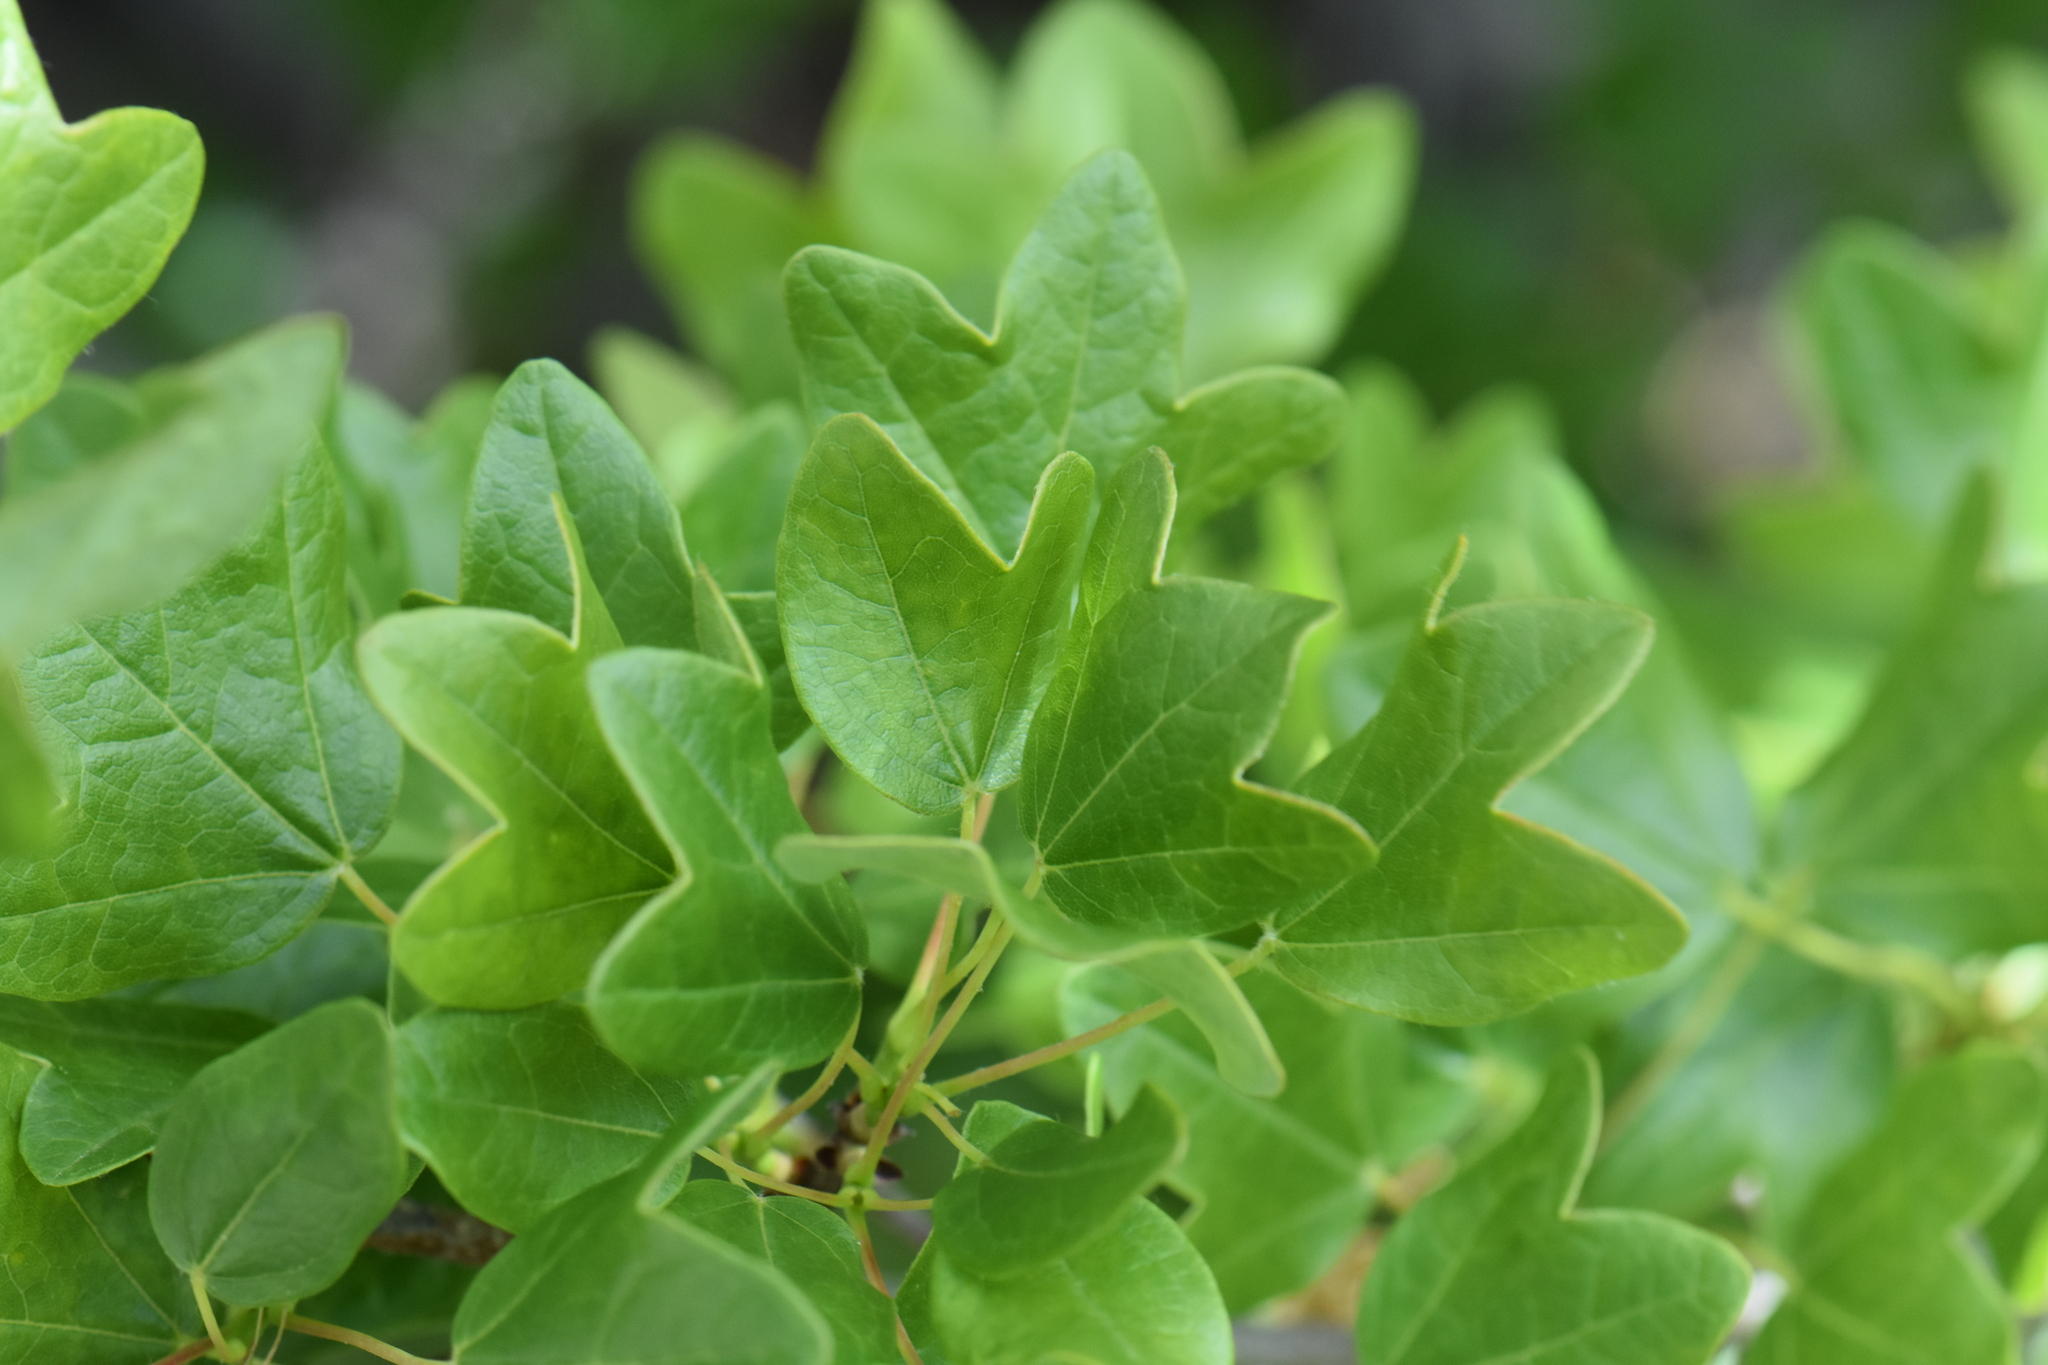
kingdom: Plantae
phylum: Tracheophyta
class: Magnoliopsida
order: Sapindales
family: Sapindaceae
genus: Acer
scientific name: Acer monspessulanum
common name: Montpellier maple
